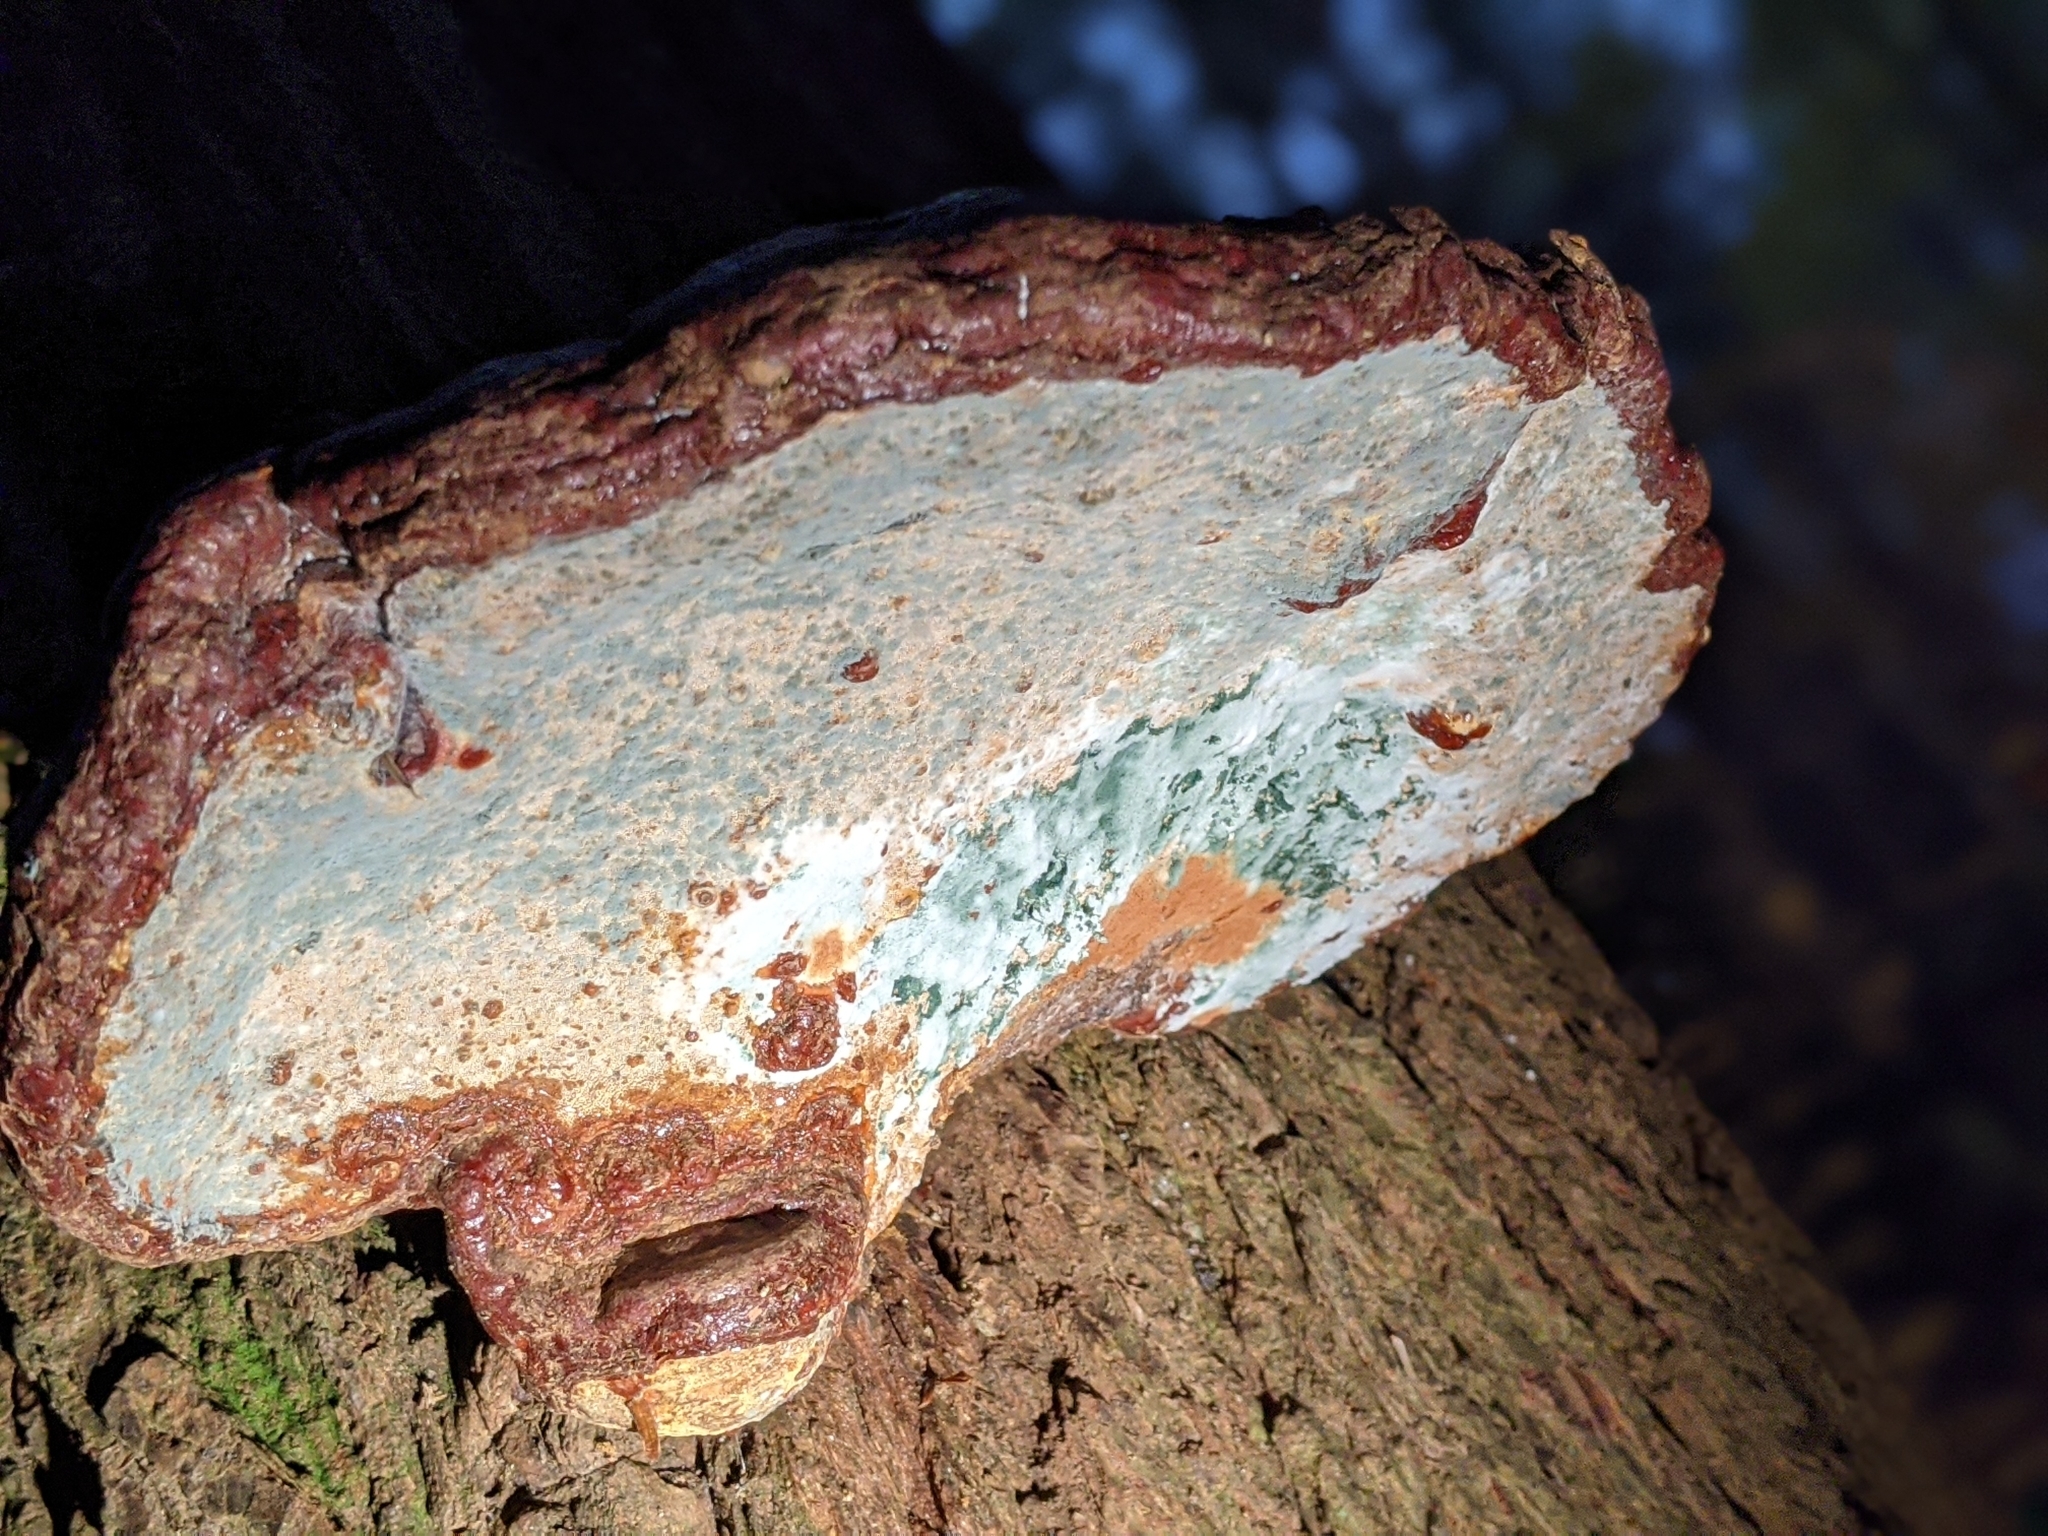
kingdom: Fungi
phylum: Basidiomycota
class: Agaricomycetes
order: Polyporales
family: Polyporaceae
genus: Ganoderma
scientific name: Ganoderma tsugae
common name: Hemlock varnish shelf
